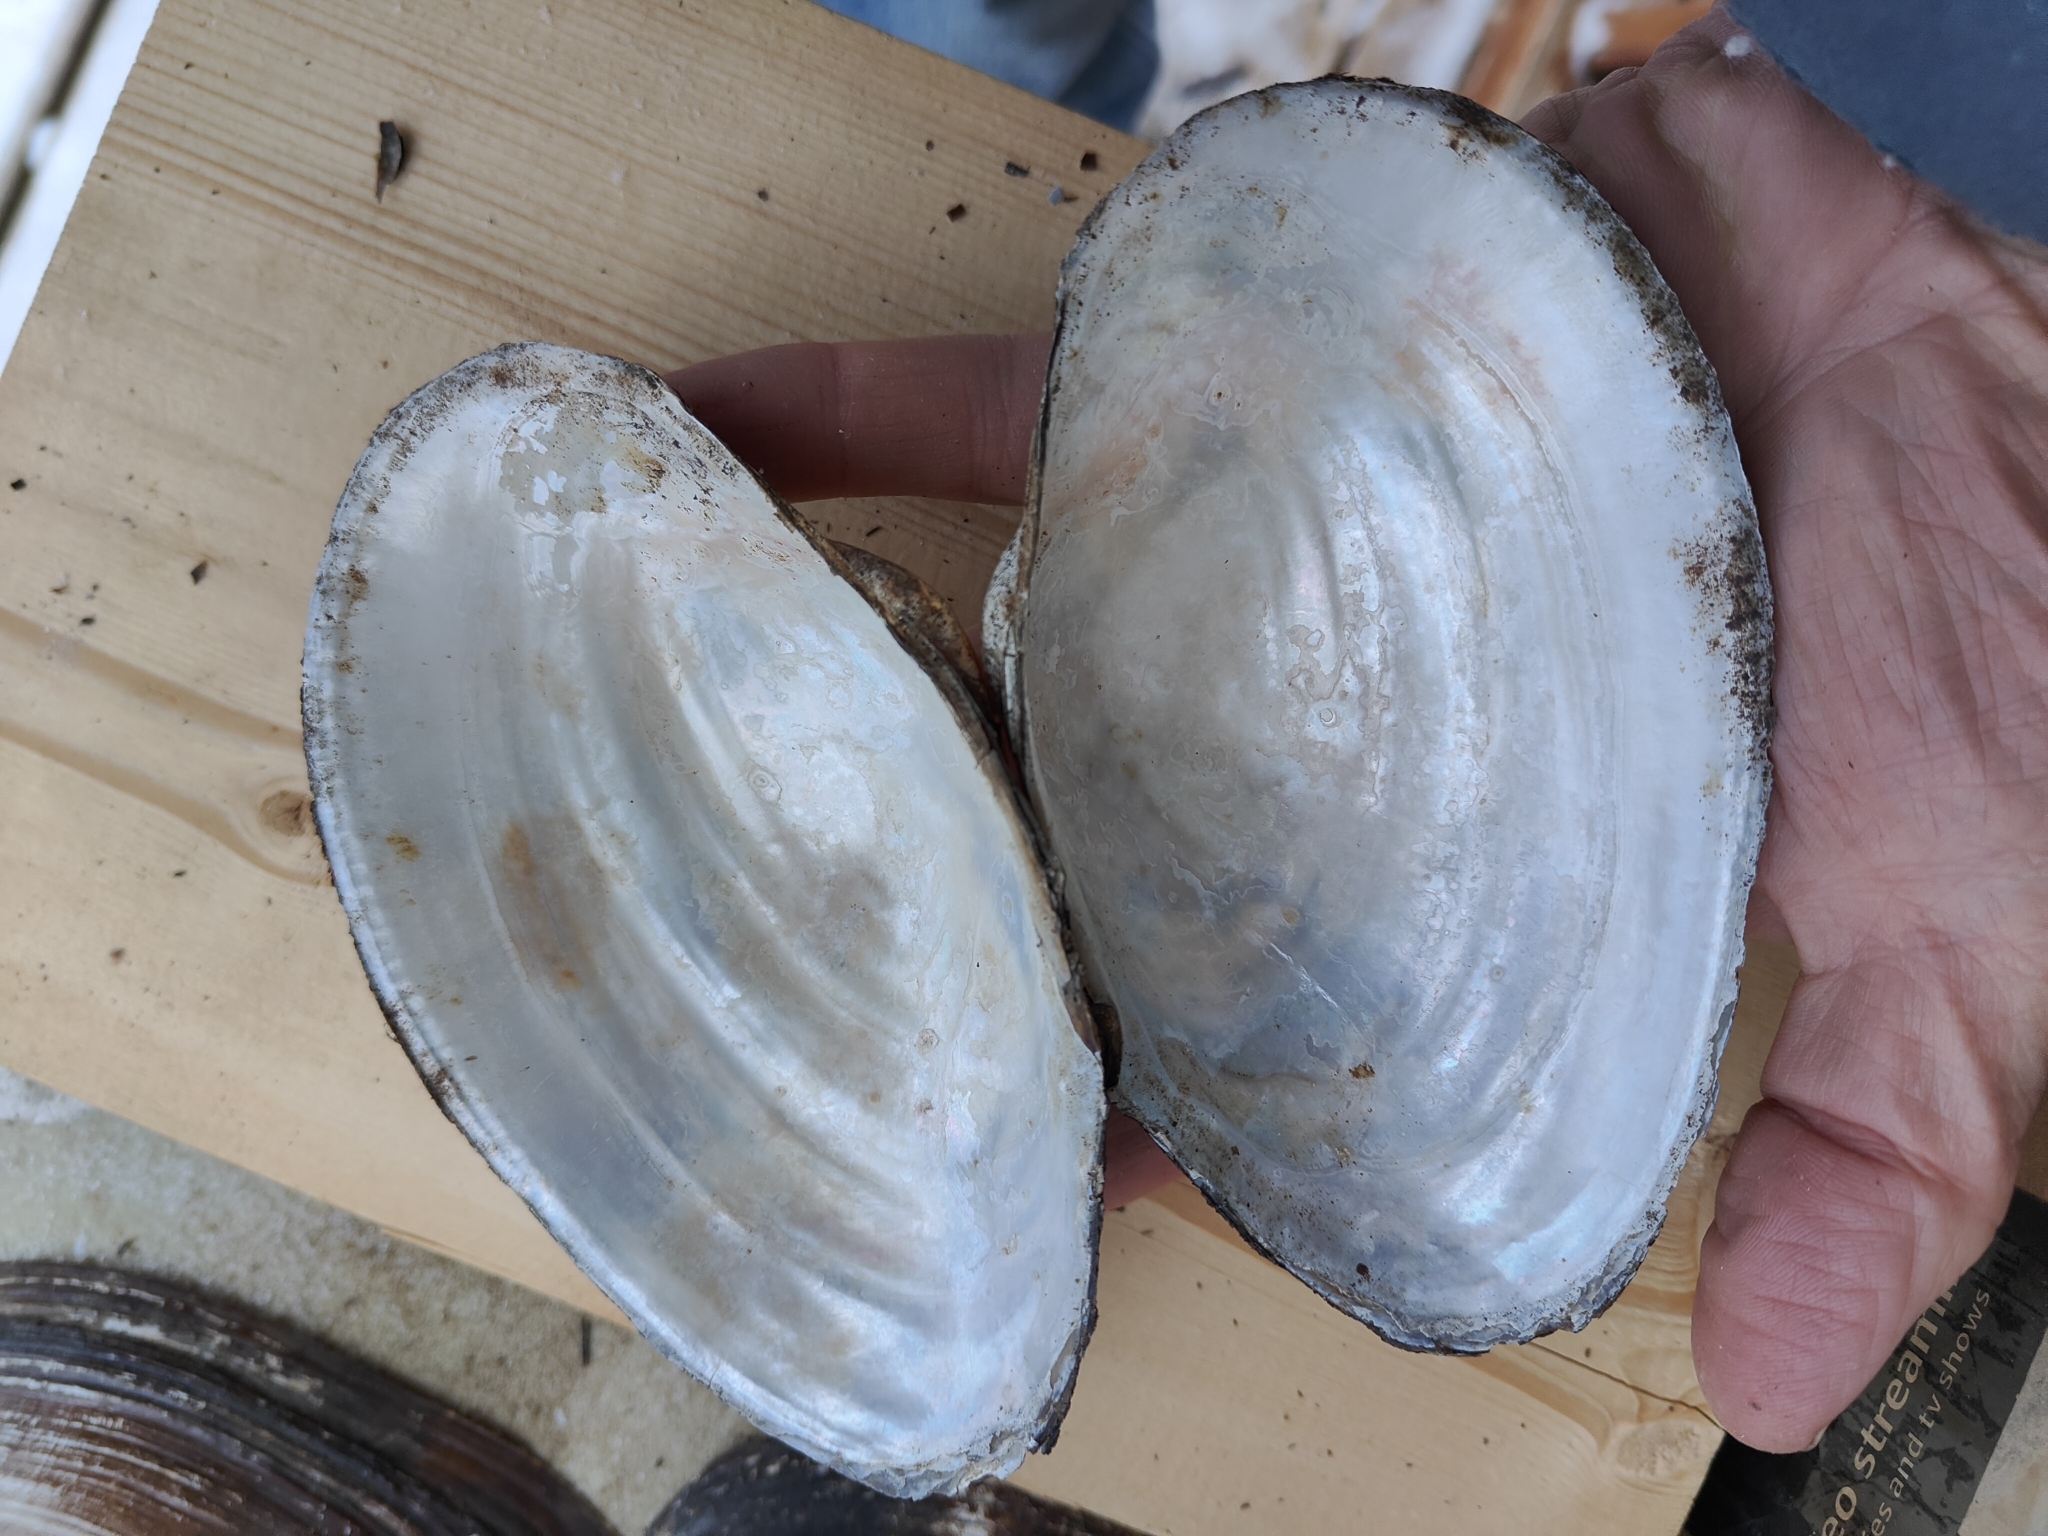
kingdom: Animalia
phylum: Mollusca
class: Bivalvia
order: Unionida
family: Unionidae
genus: Pyganodon
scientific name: Pyganodon grandis
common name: Giant floater
